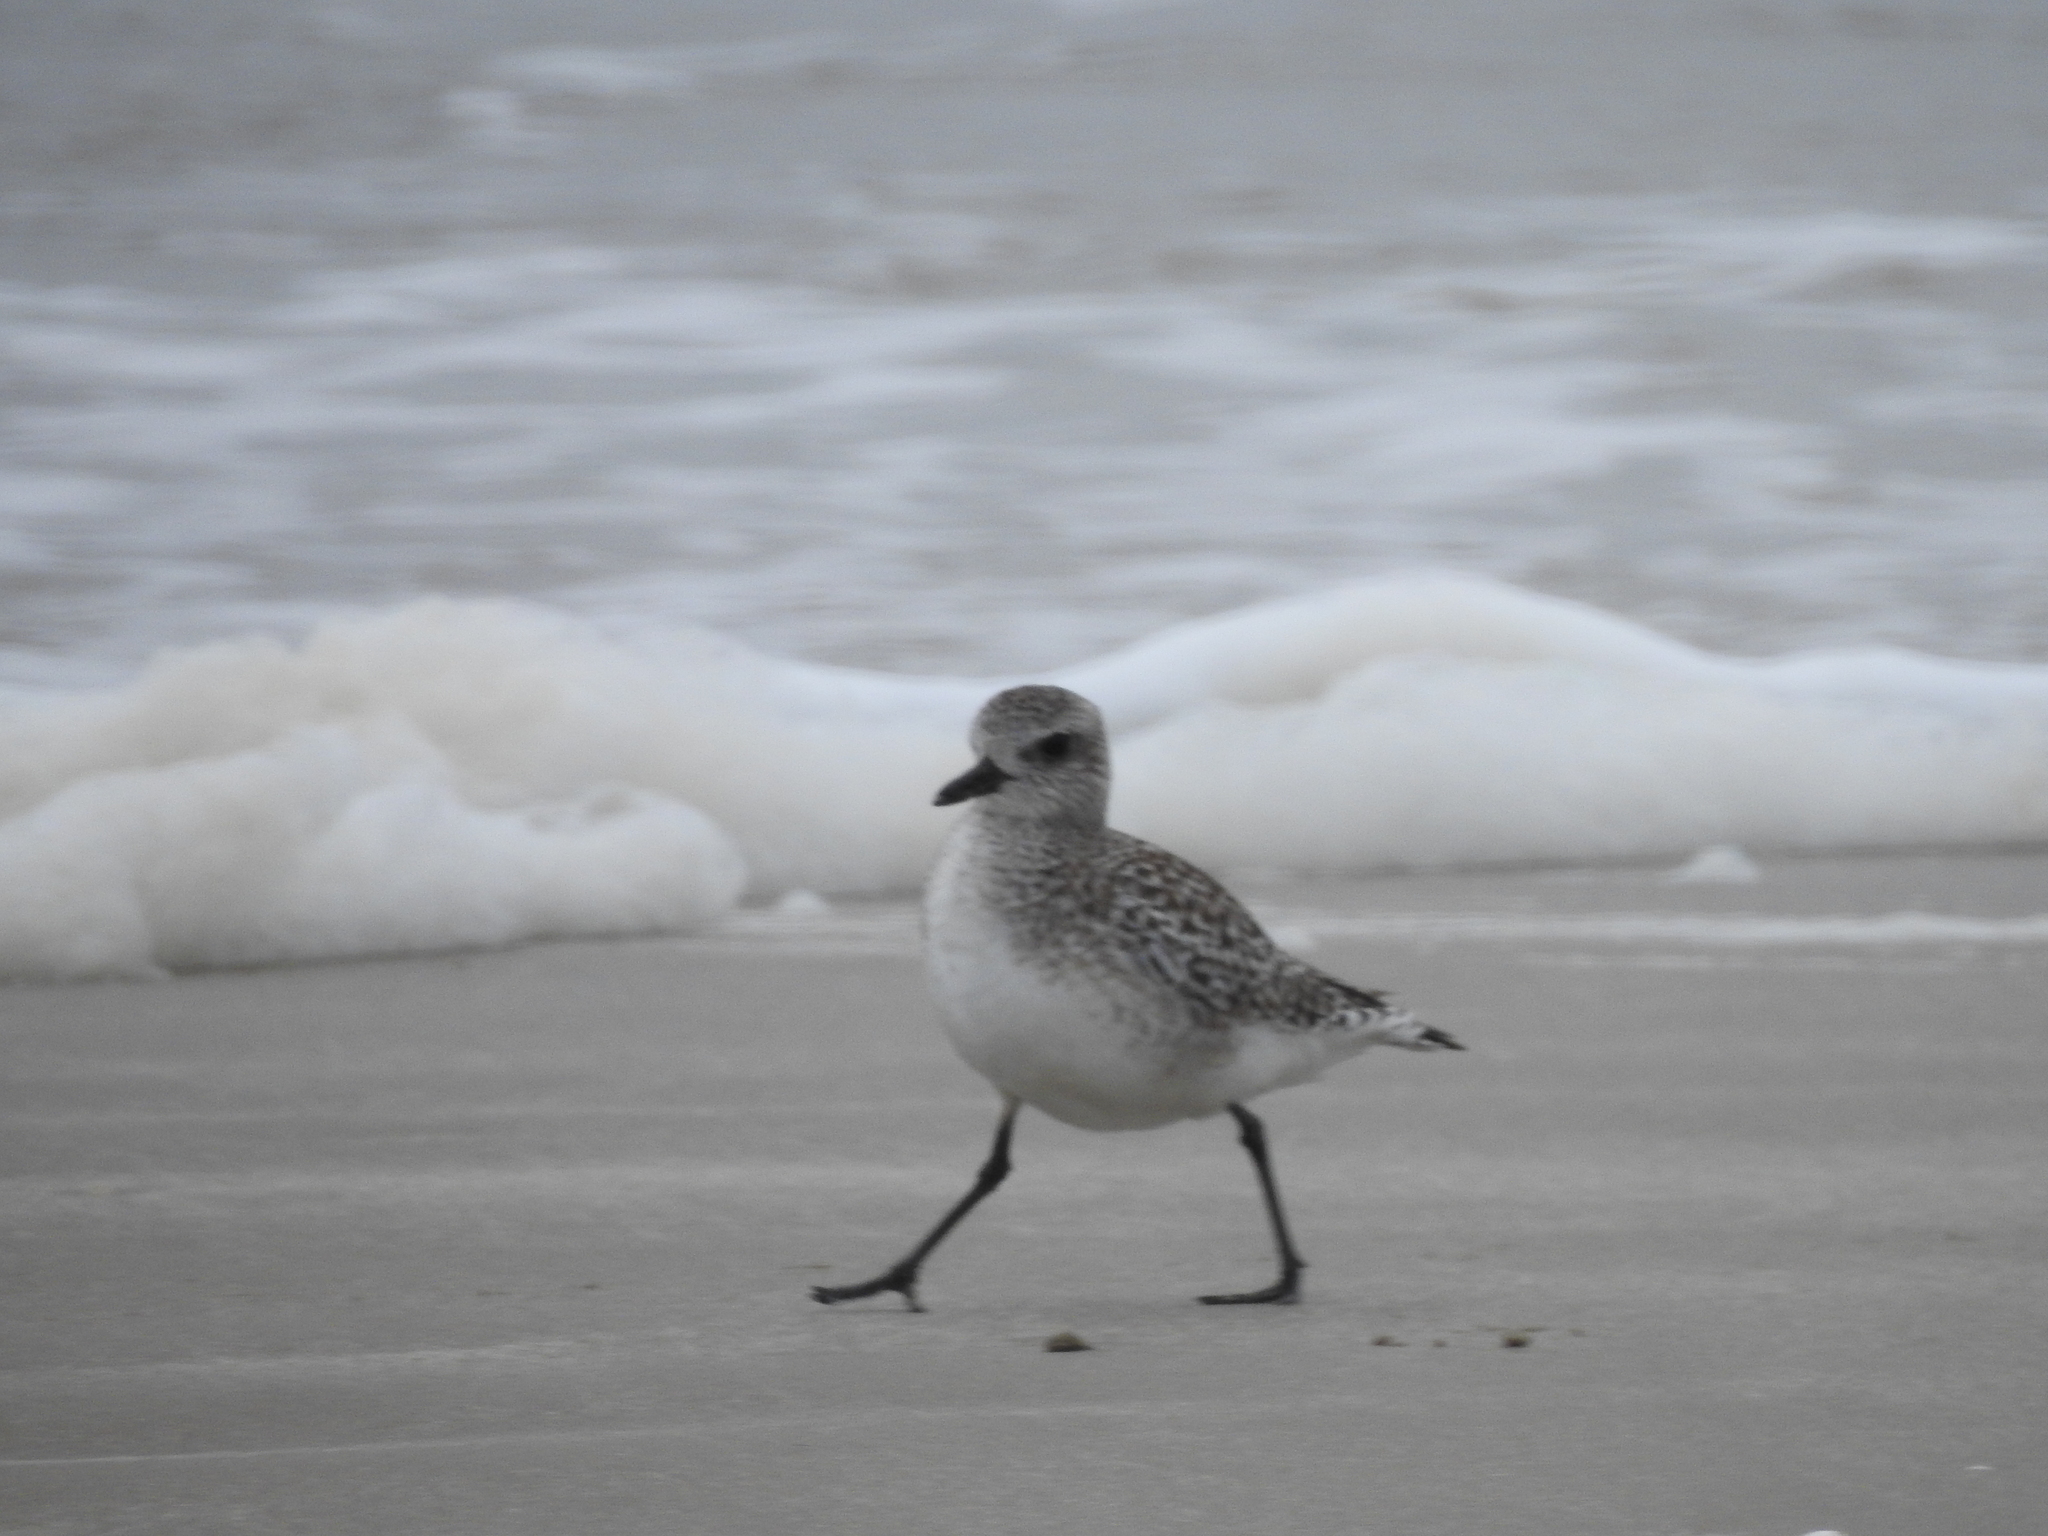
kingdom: Animalia
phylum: Chordata
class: Aves
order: Charadriiformes
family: Charadriidae
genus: Pluvialis
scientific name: Pluvialis squatarola
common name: Grey plover
